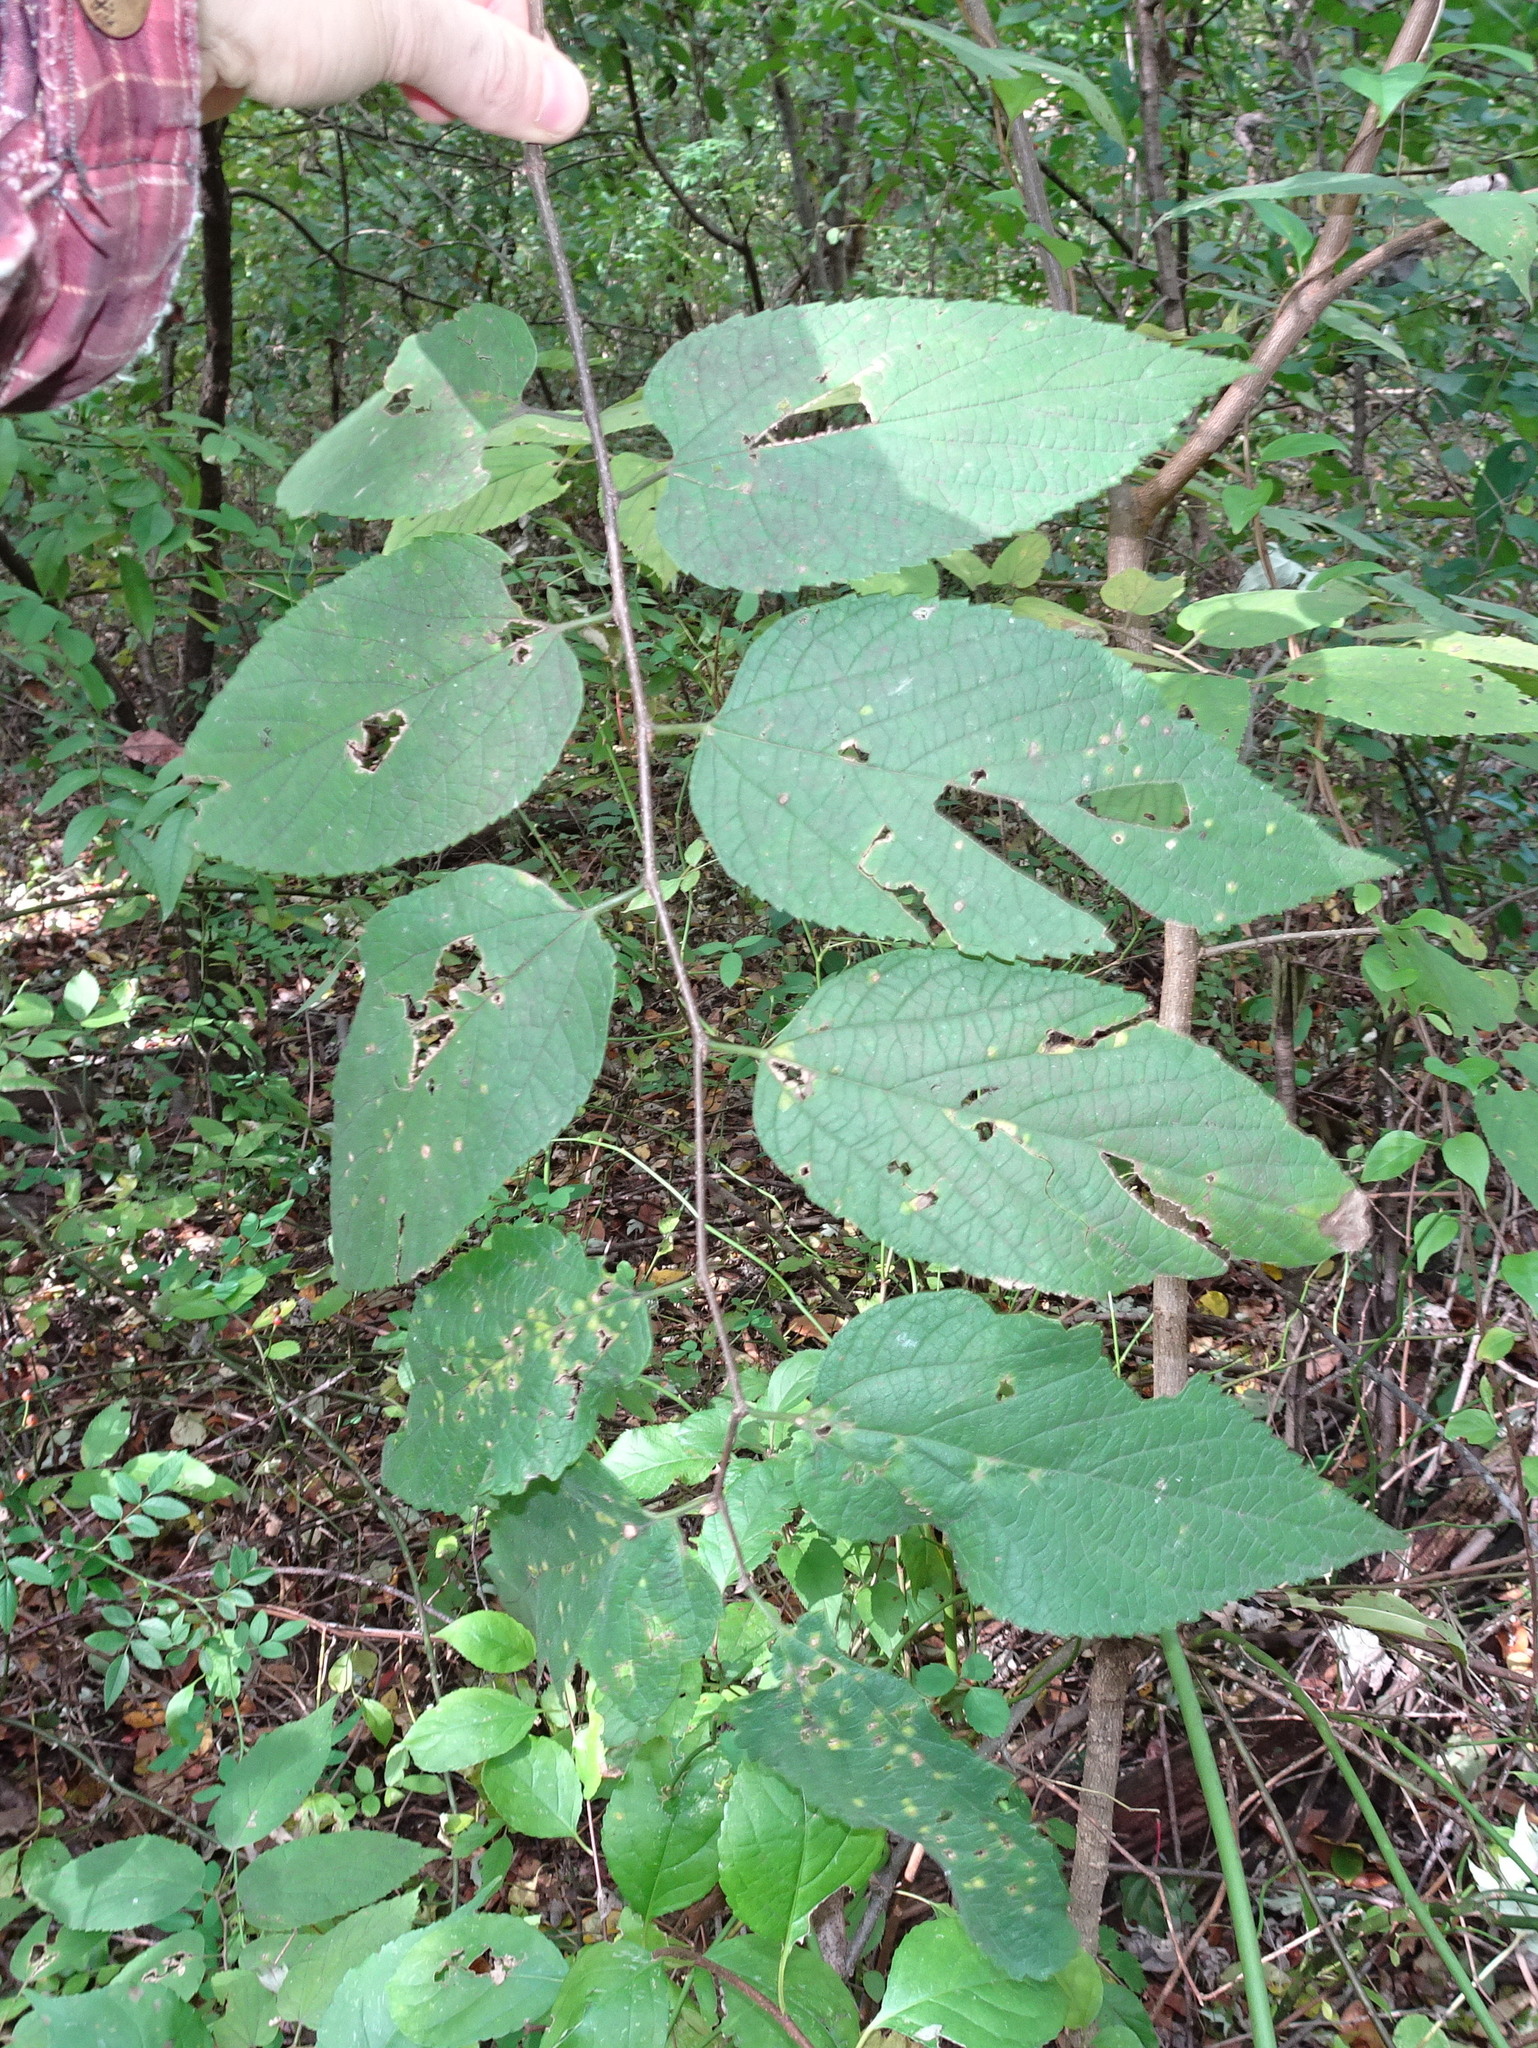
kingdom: Plantae
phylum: Tracheophyta
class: Magnoliopsida
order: Rosales
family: Cannabaceae
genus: Celtis
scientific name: Celtis occidentalis
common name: Common hackberry
